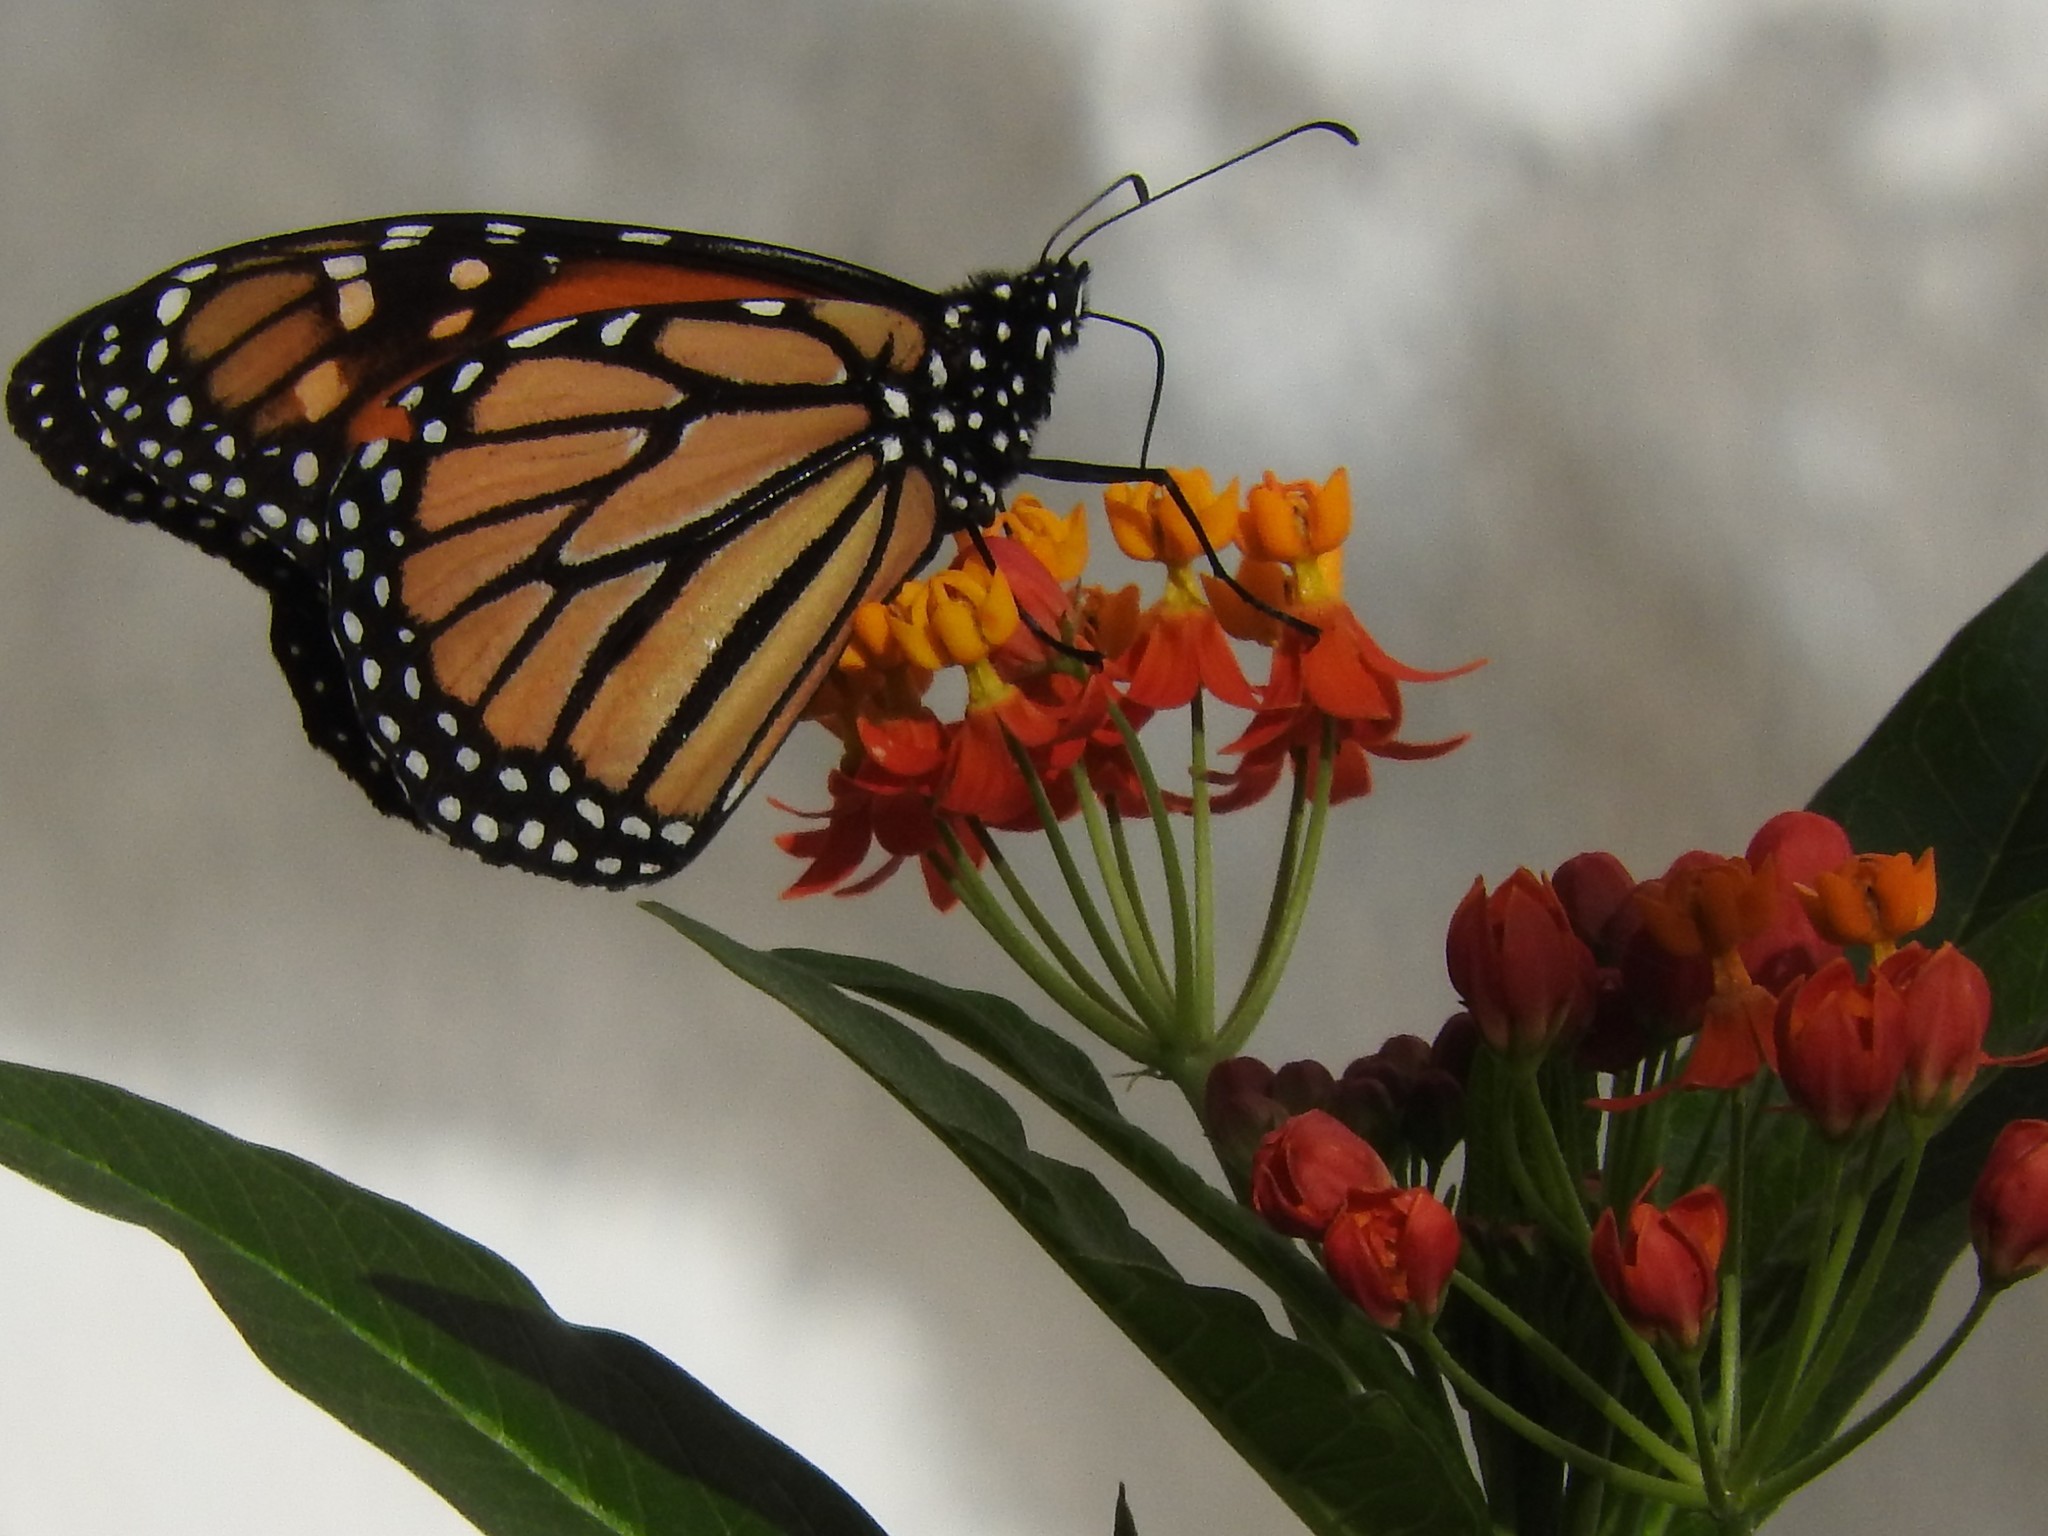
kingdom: Animalia
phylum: Arthropoda
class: Insecta
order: Lepidoptera
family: Nymphalidae
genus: Danaus
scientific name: Danaus plexippus
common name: Monarch
